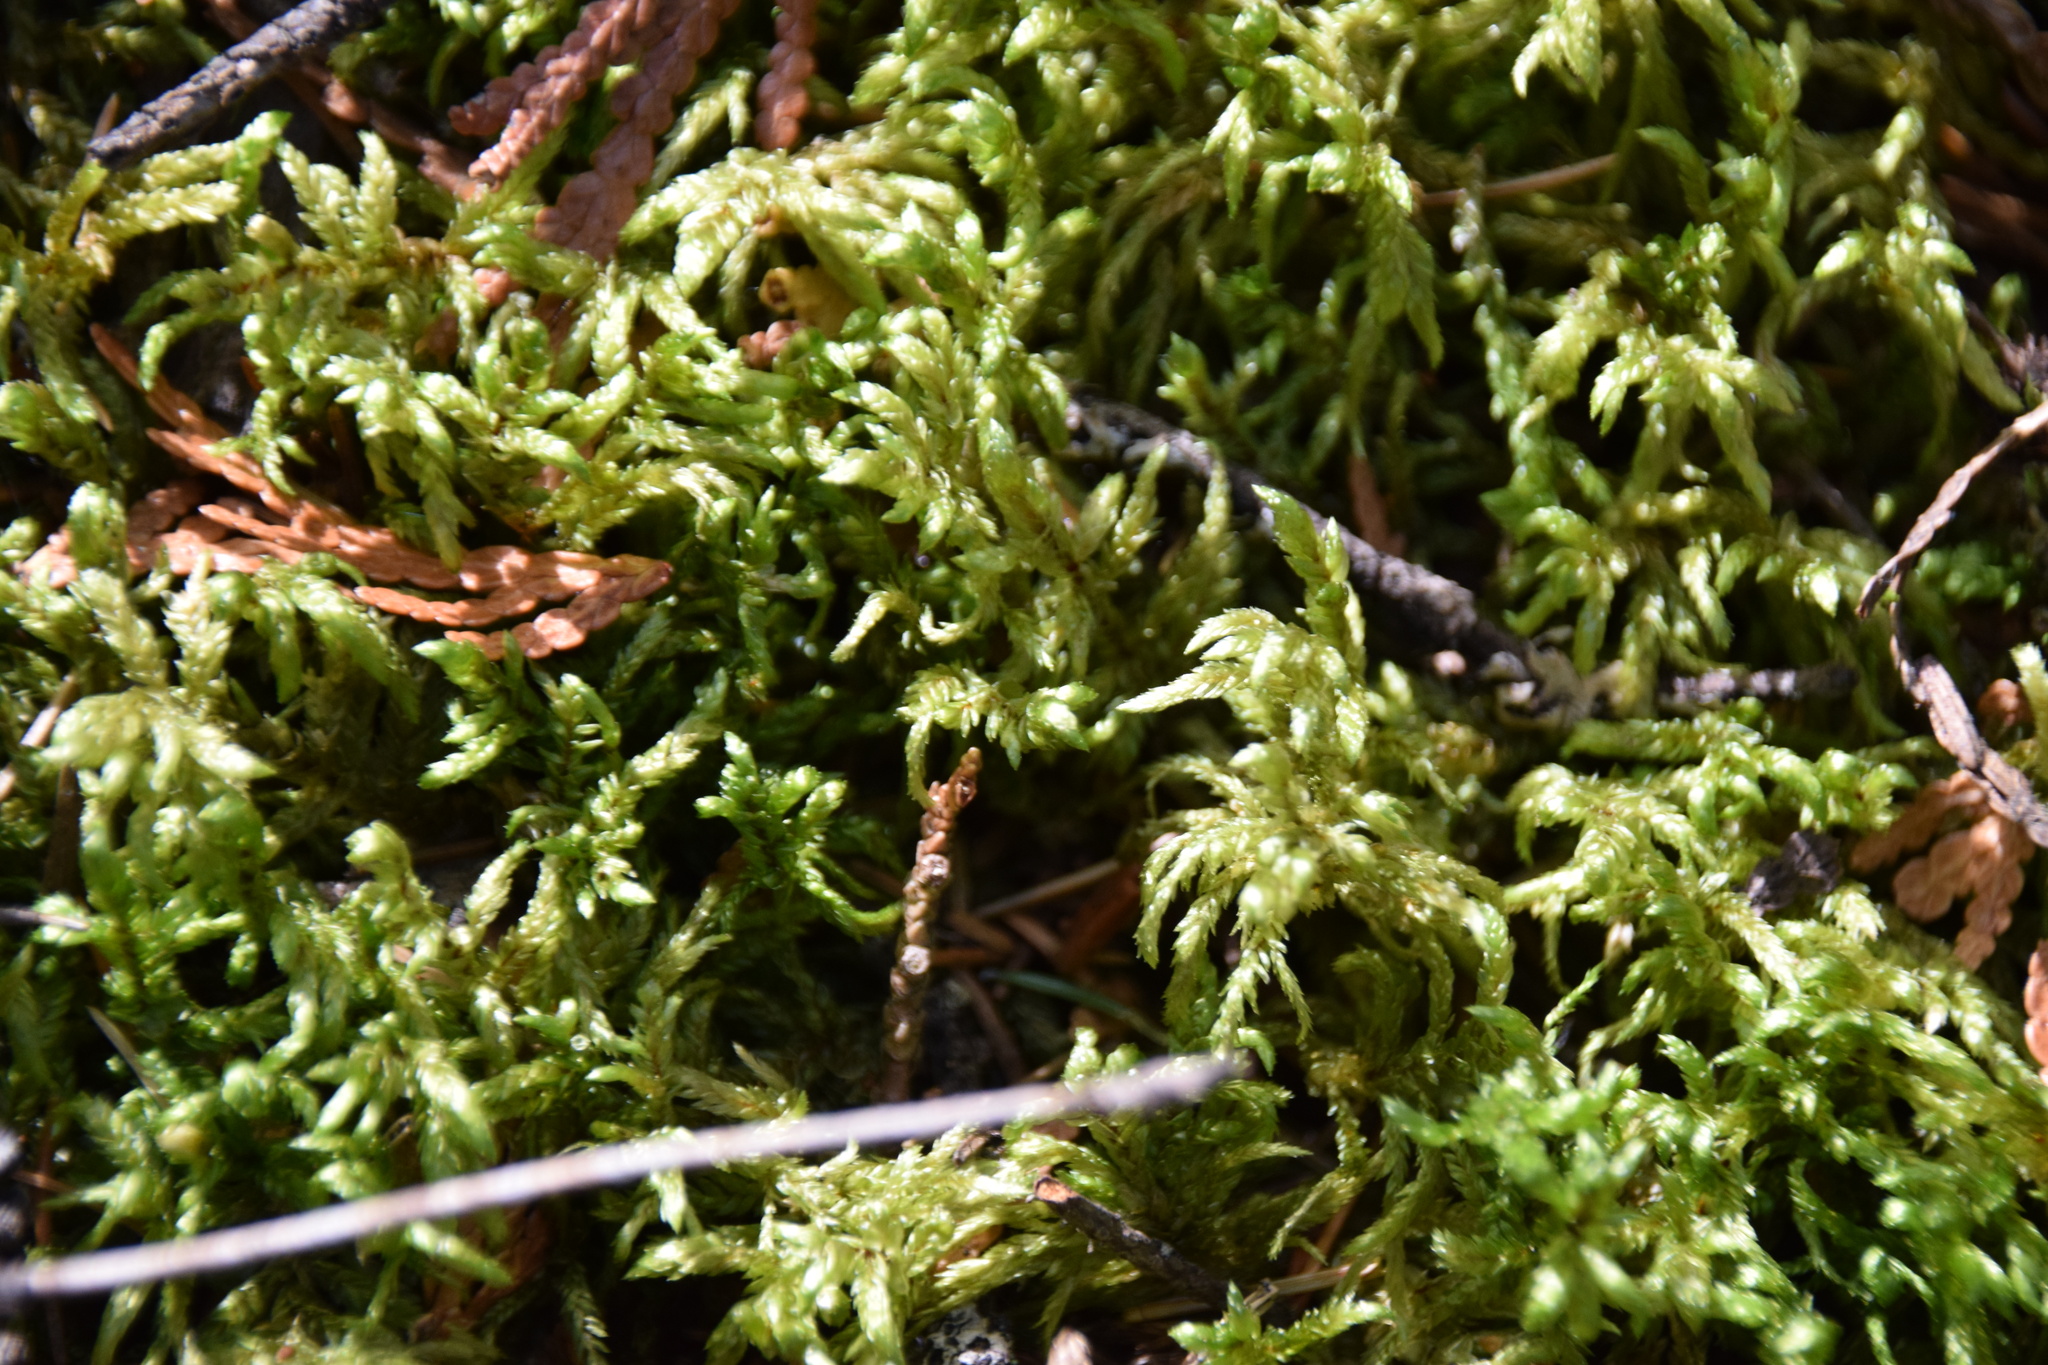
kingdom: Plantae
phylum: Bryophyta
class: Bryopsida
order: Hypnales
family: Hylocomiaceae
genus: Pleurozium
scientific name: Pleurozium schreberi
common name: Red-stemmed feather moss
